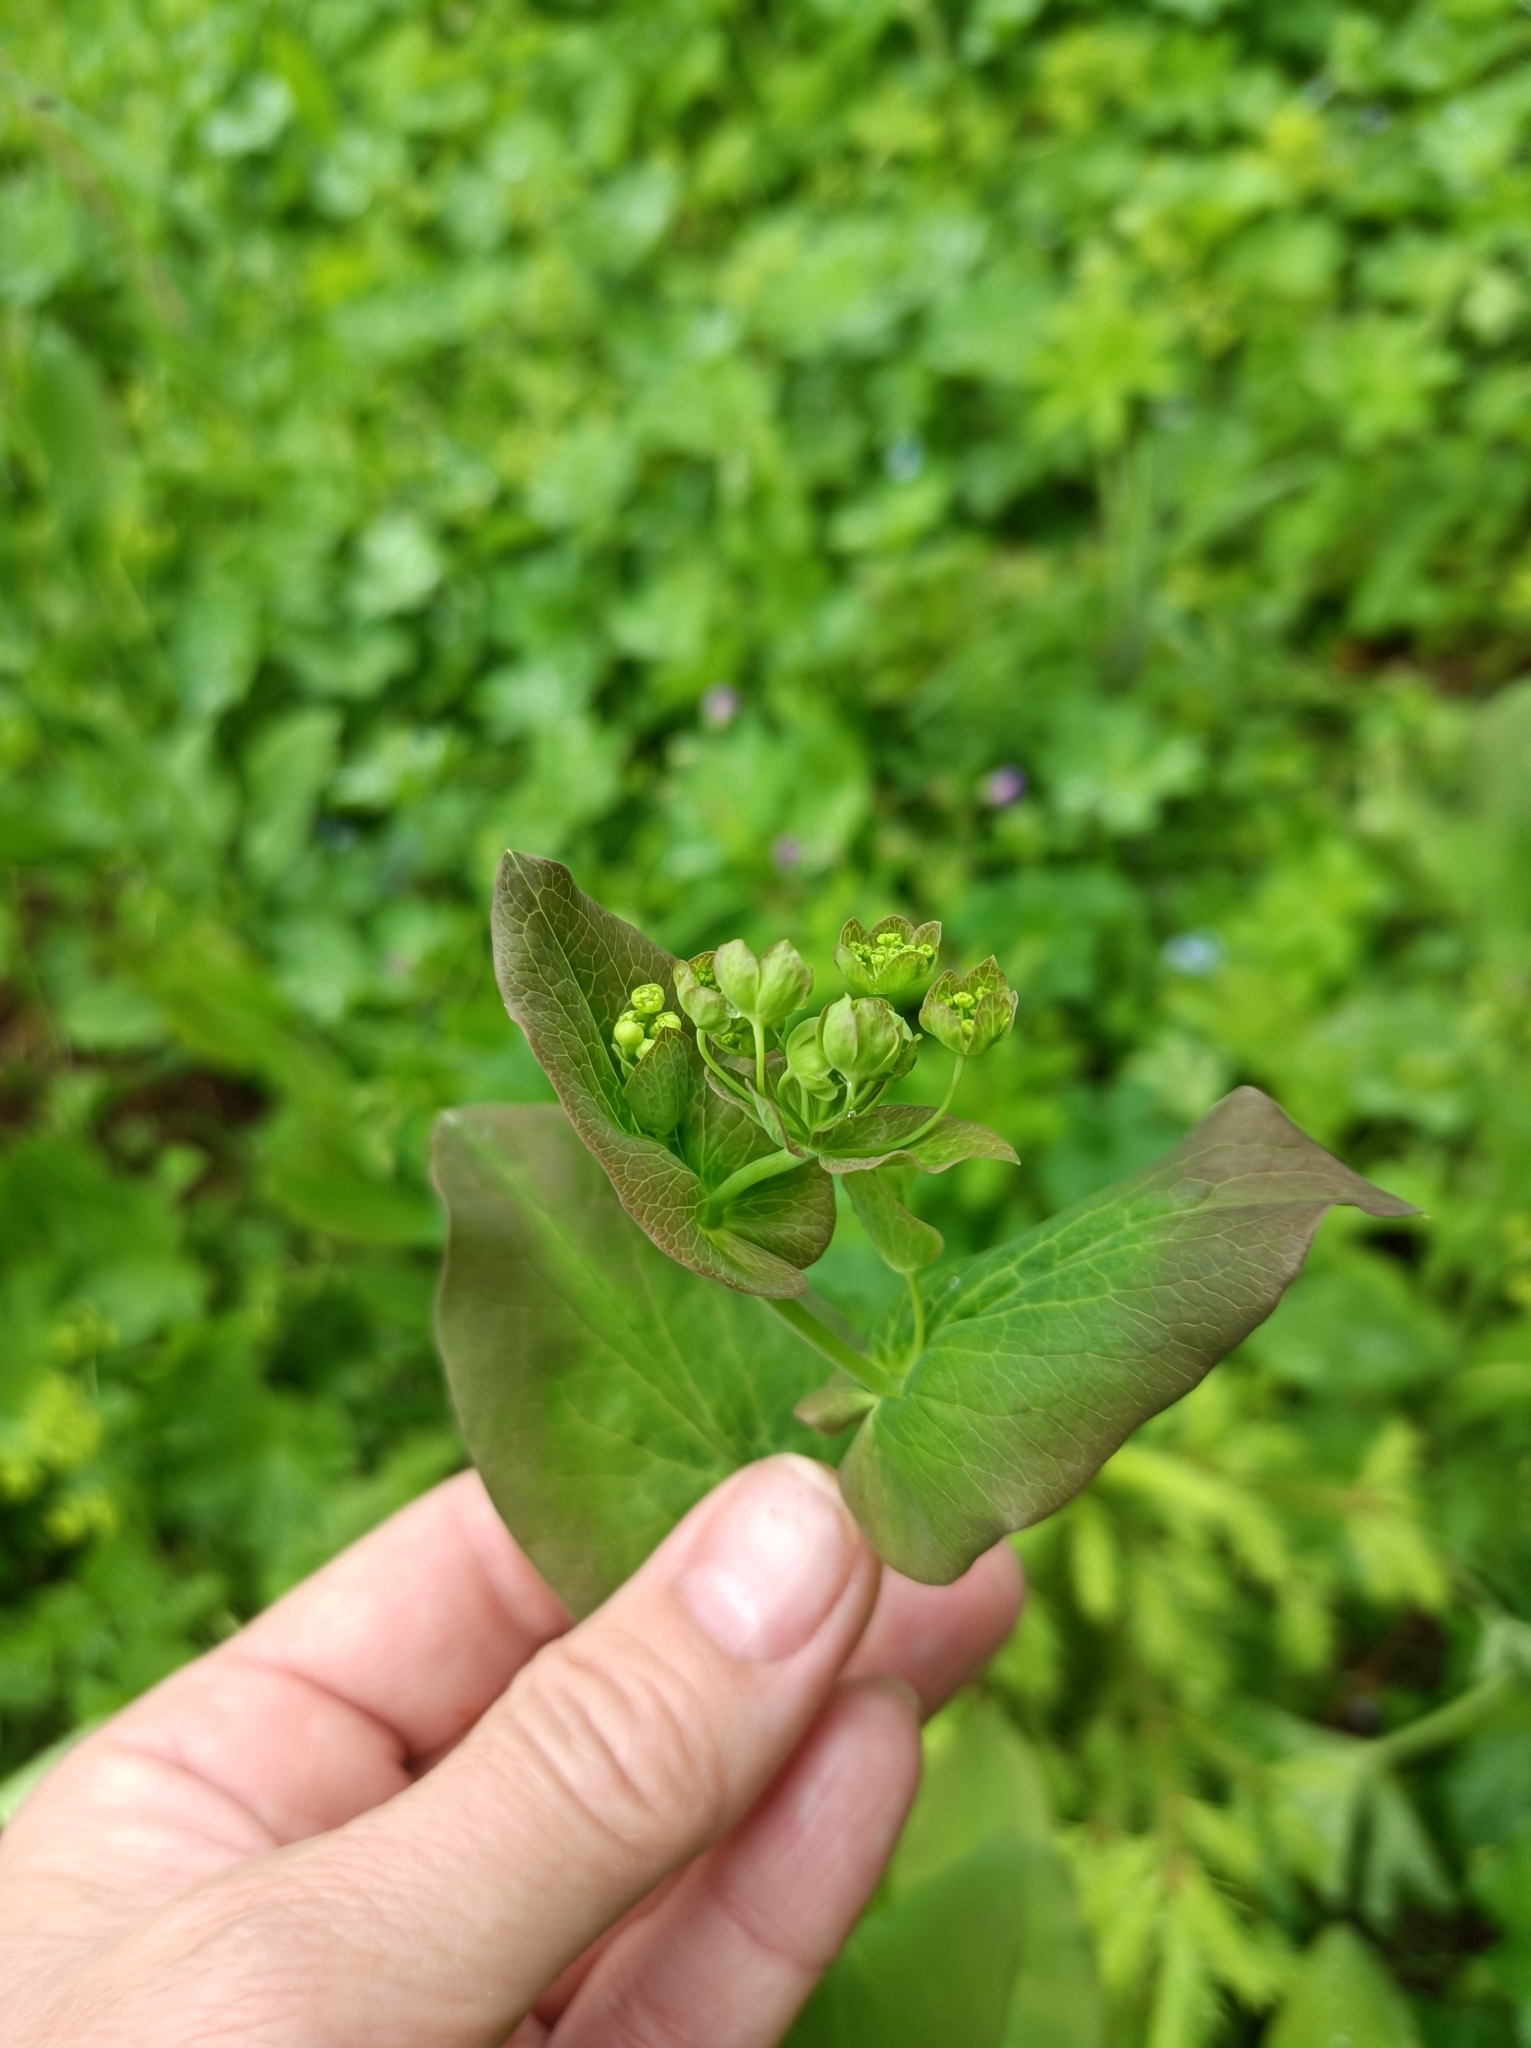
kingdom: Plantae
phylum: Tracheophyta
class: Magnoliopsida
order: Apiales
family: Apiaceae
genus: Bupleurum
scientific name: Bupleurum aureum
